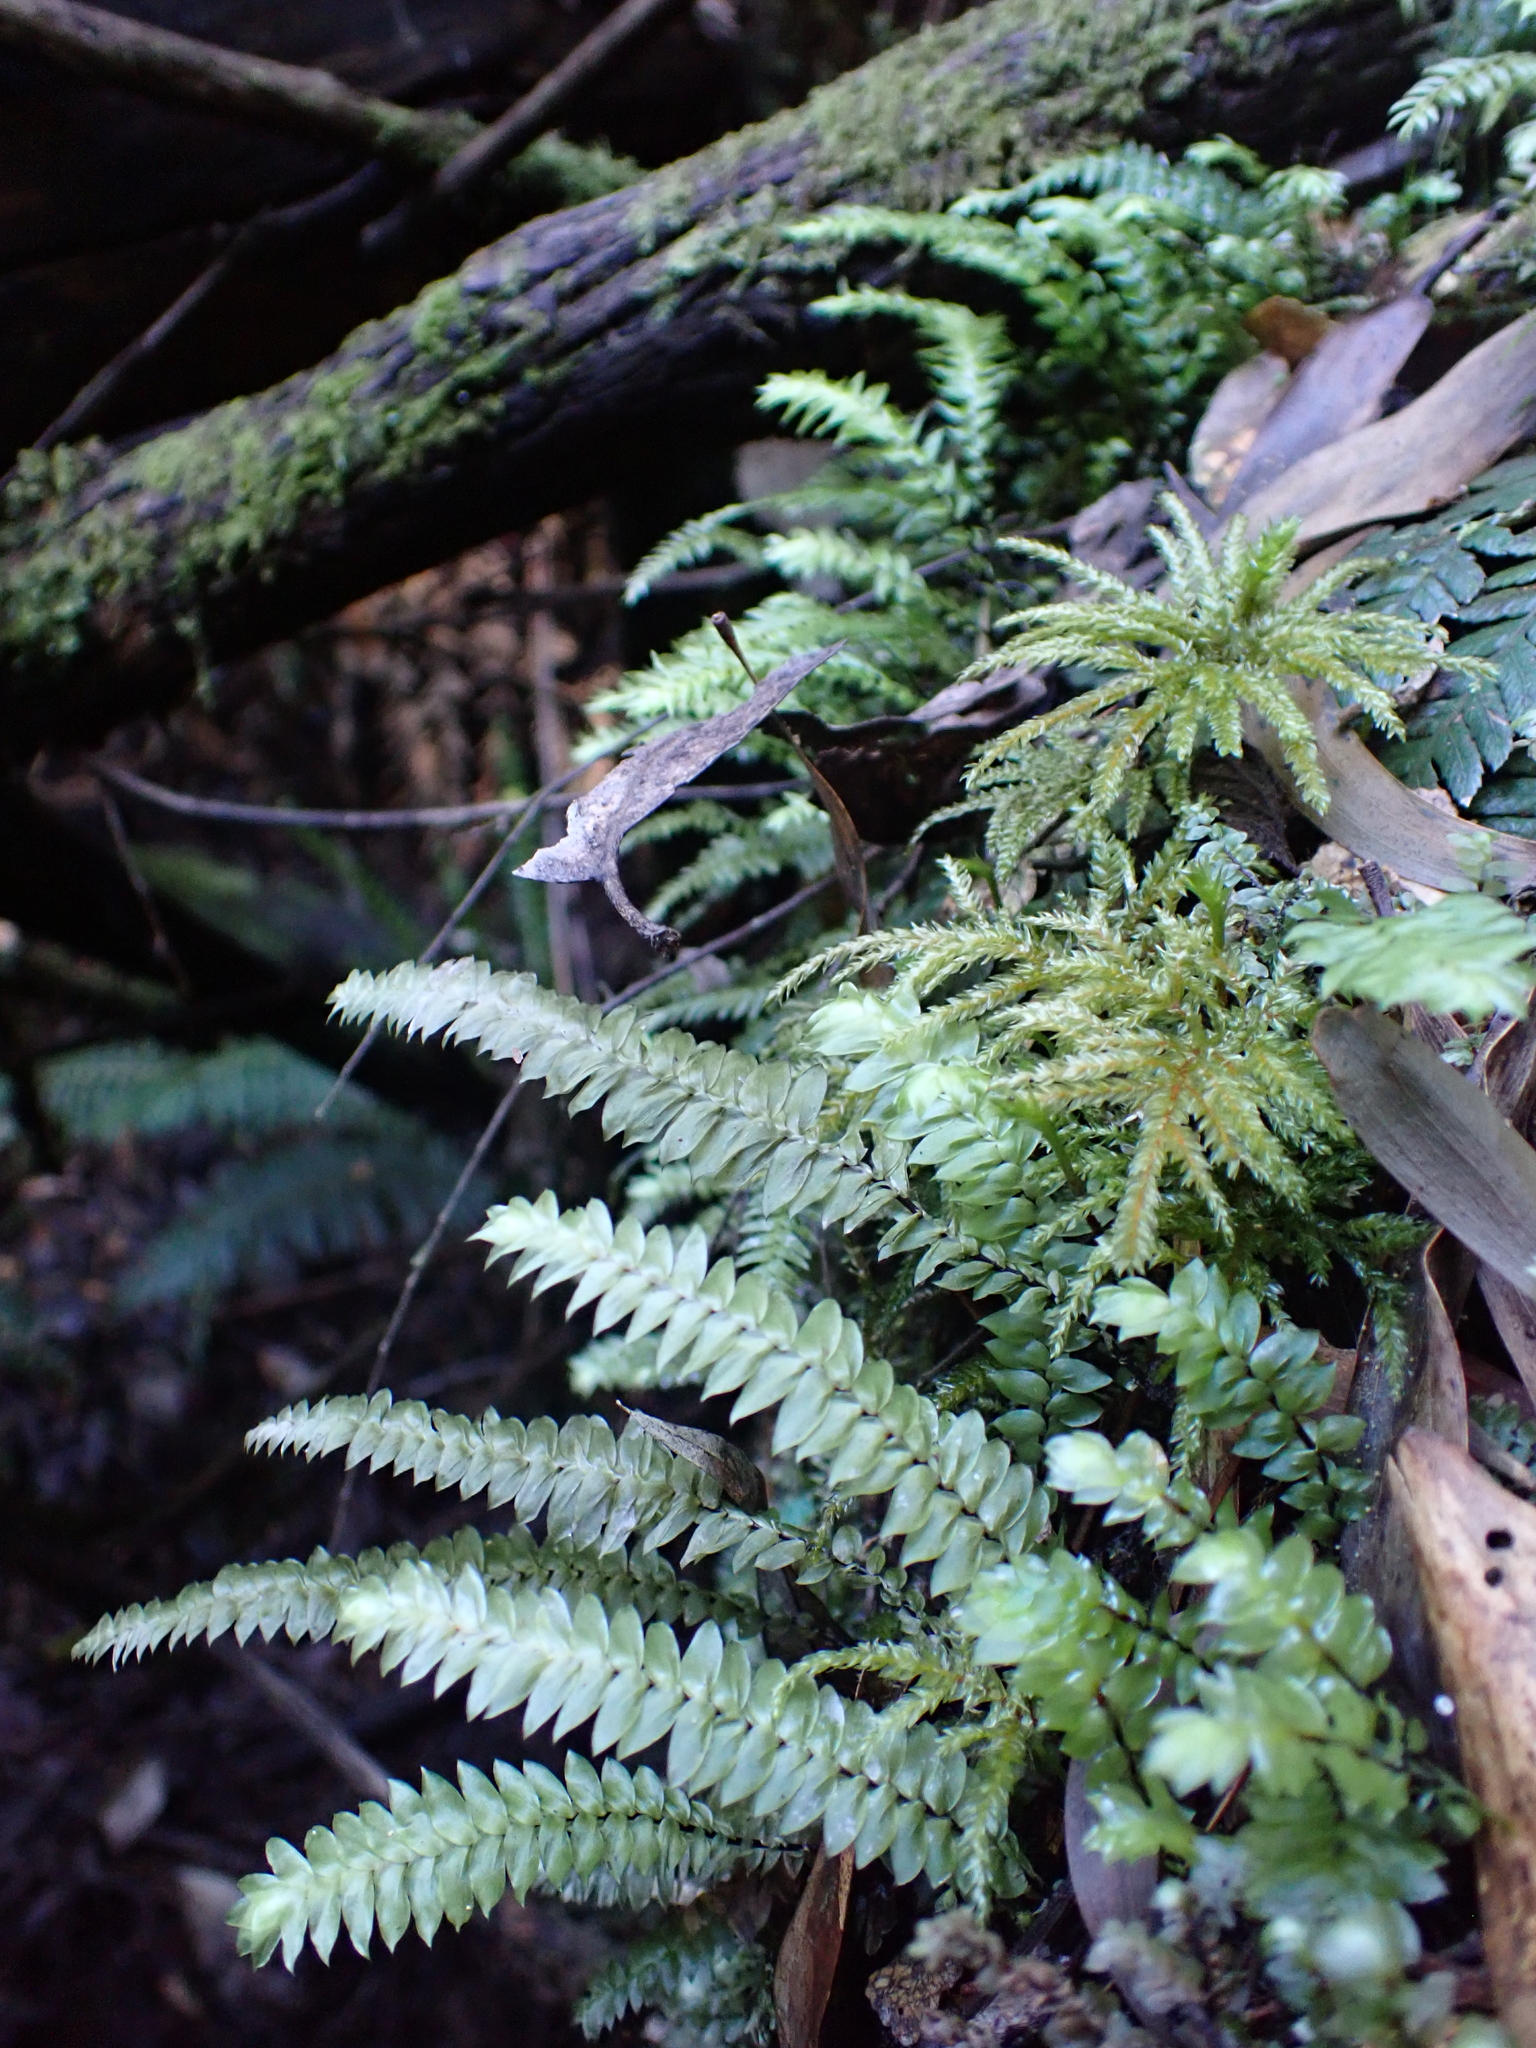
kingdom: Plantae
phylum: Bryophyta
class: Bryopsida
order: Hypopterygiales
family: Hypopterygiaceae
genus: Cyathophorum
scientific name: Cyathophorum bulbosum
